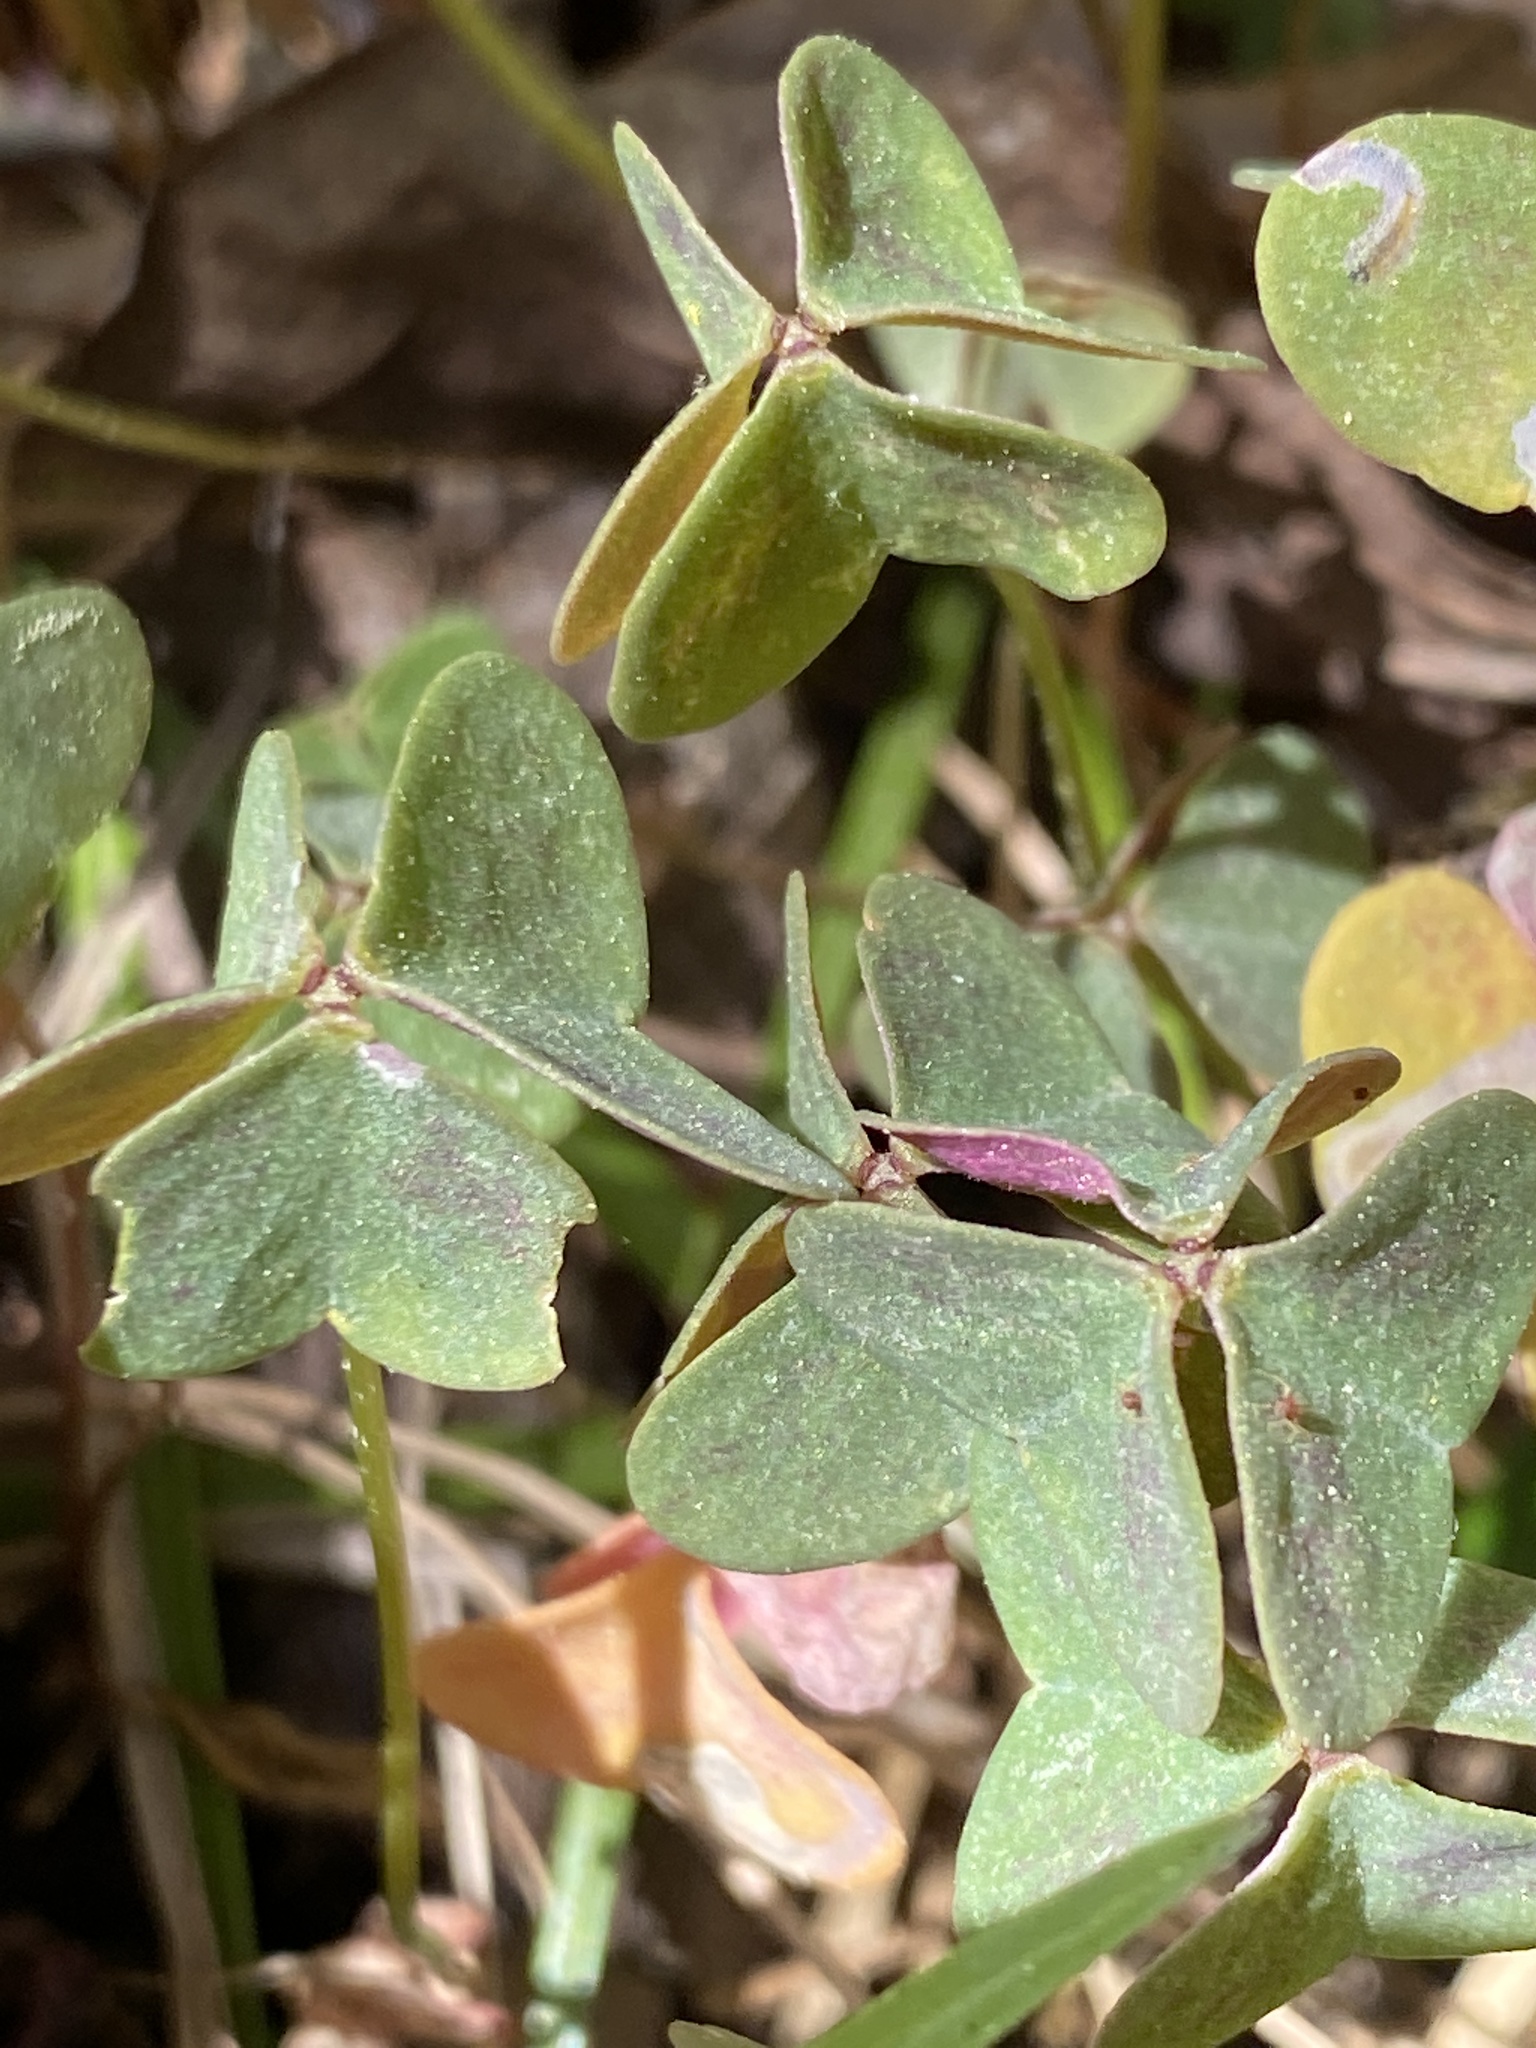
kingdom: Plantae
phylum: Tracheophyta
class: Magnoliopsida
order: Oxalidales
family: Oxalidaceae
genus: Oxalis
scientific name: Oxalis violacea
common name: Violet wood-sorrel
